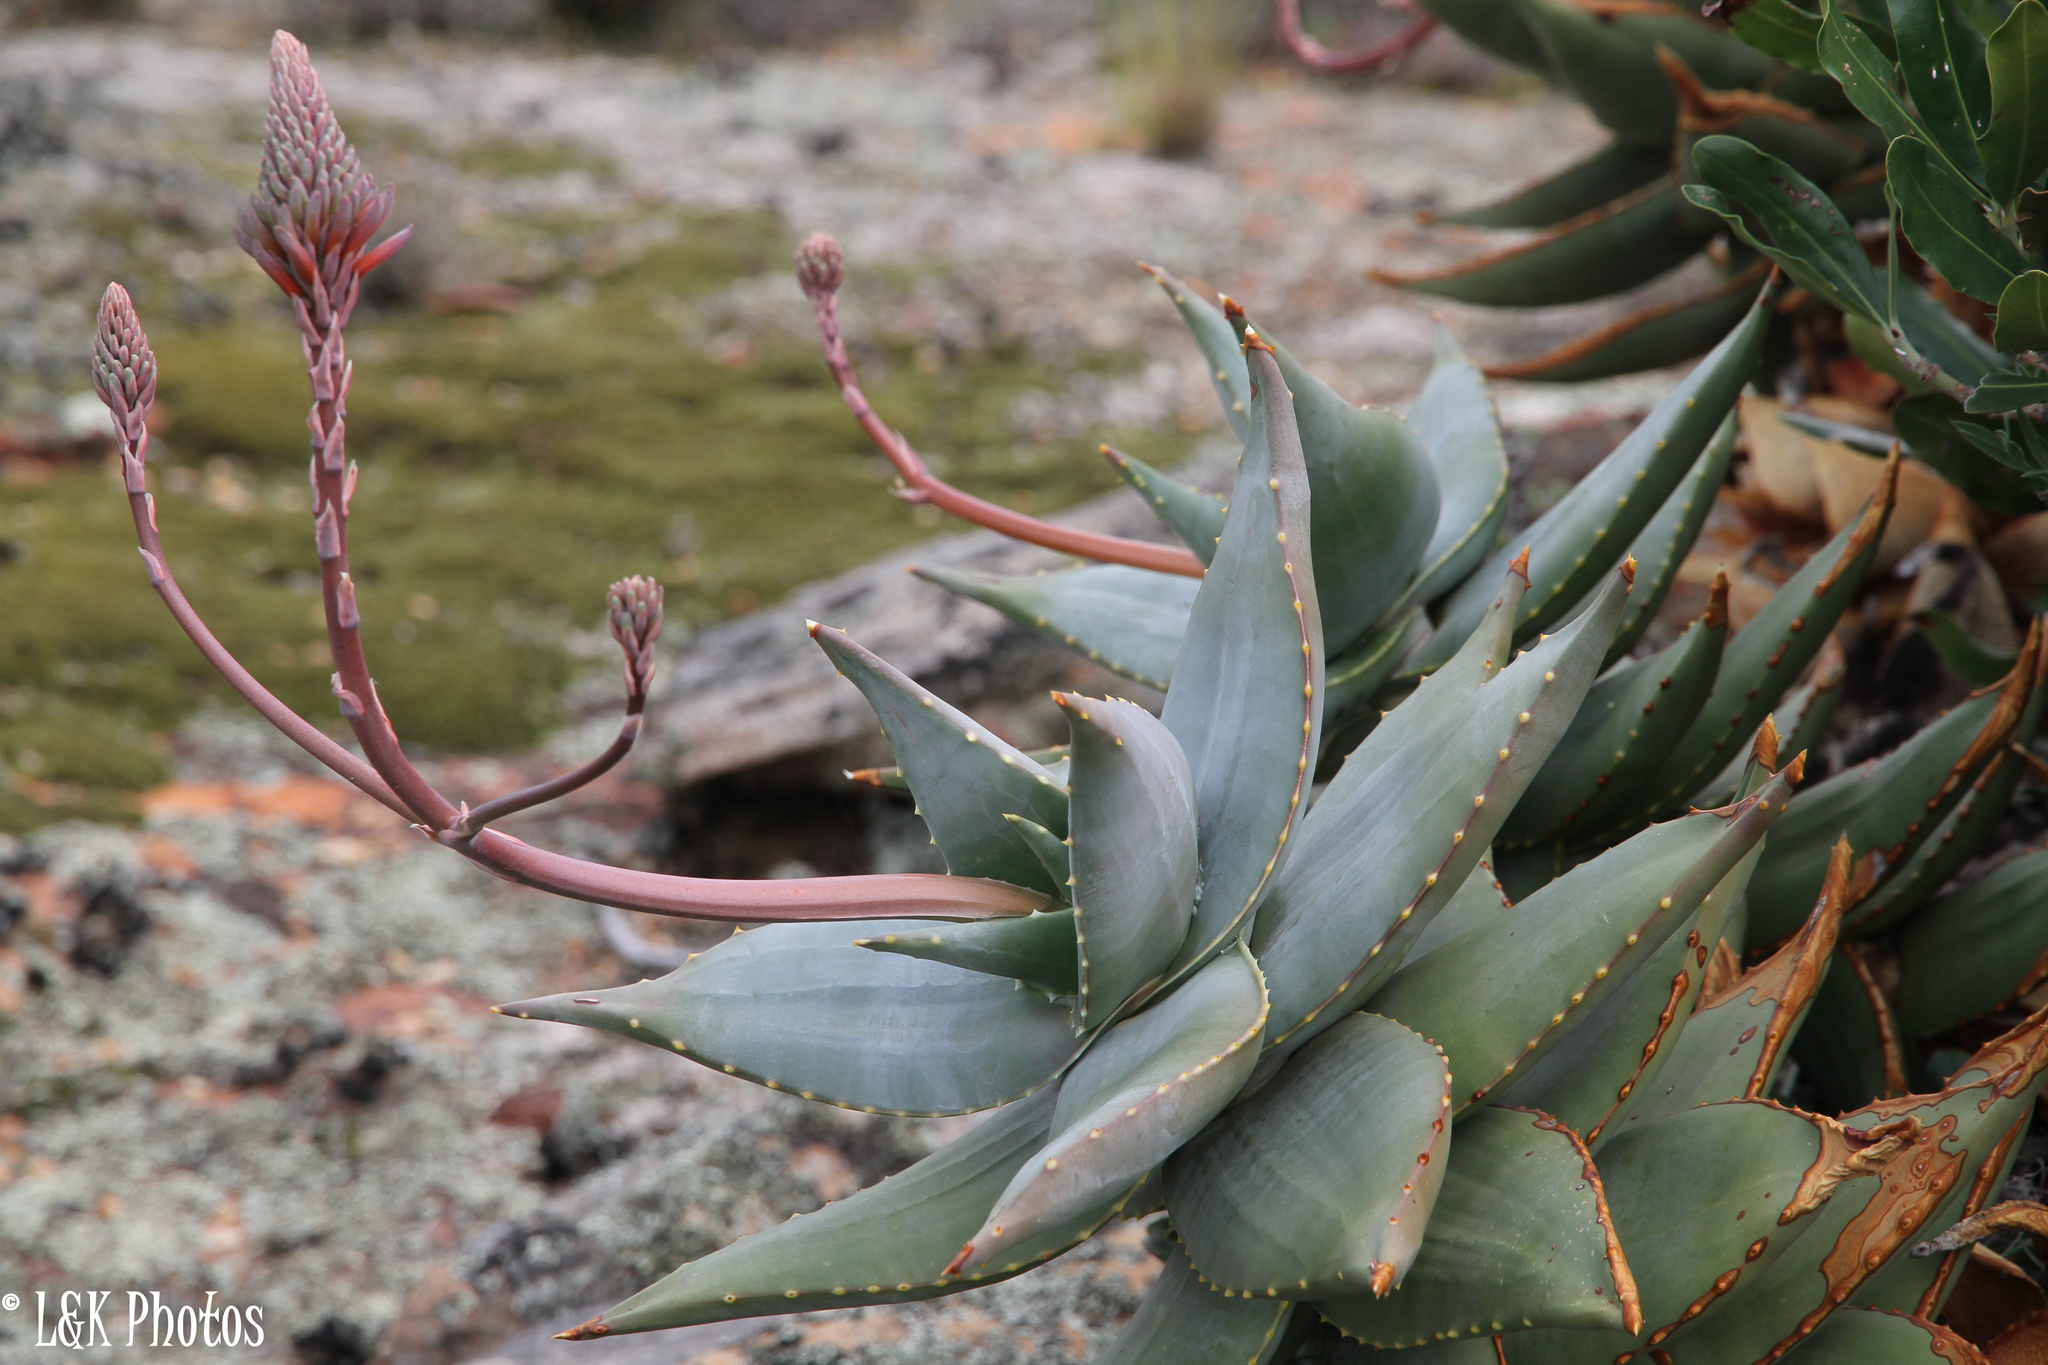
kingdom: Plantae
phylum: Tracheophyta
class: Liliopsida
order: Asparagales
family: Asphodelaceae
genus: Aloe
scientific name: Aloe perfoliata
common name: Mitra aloe
